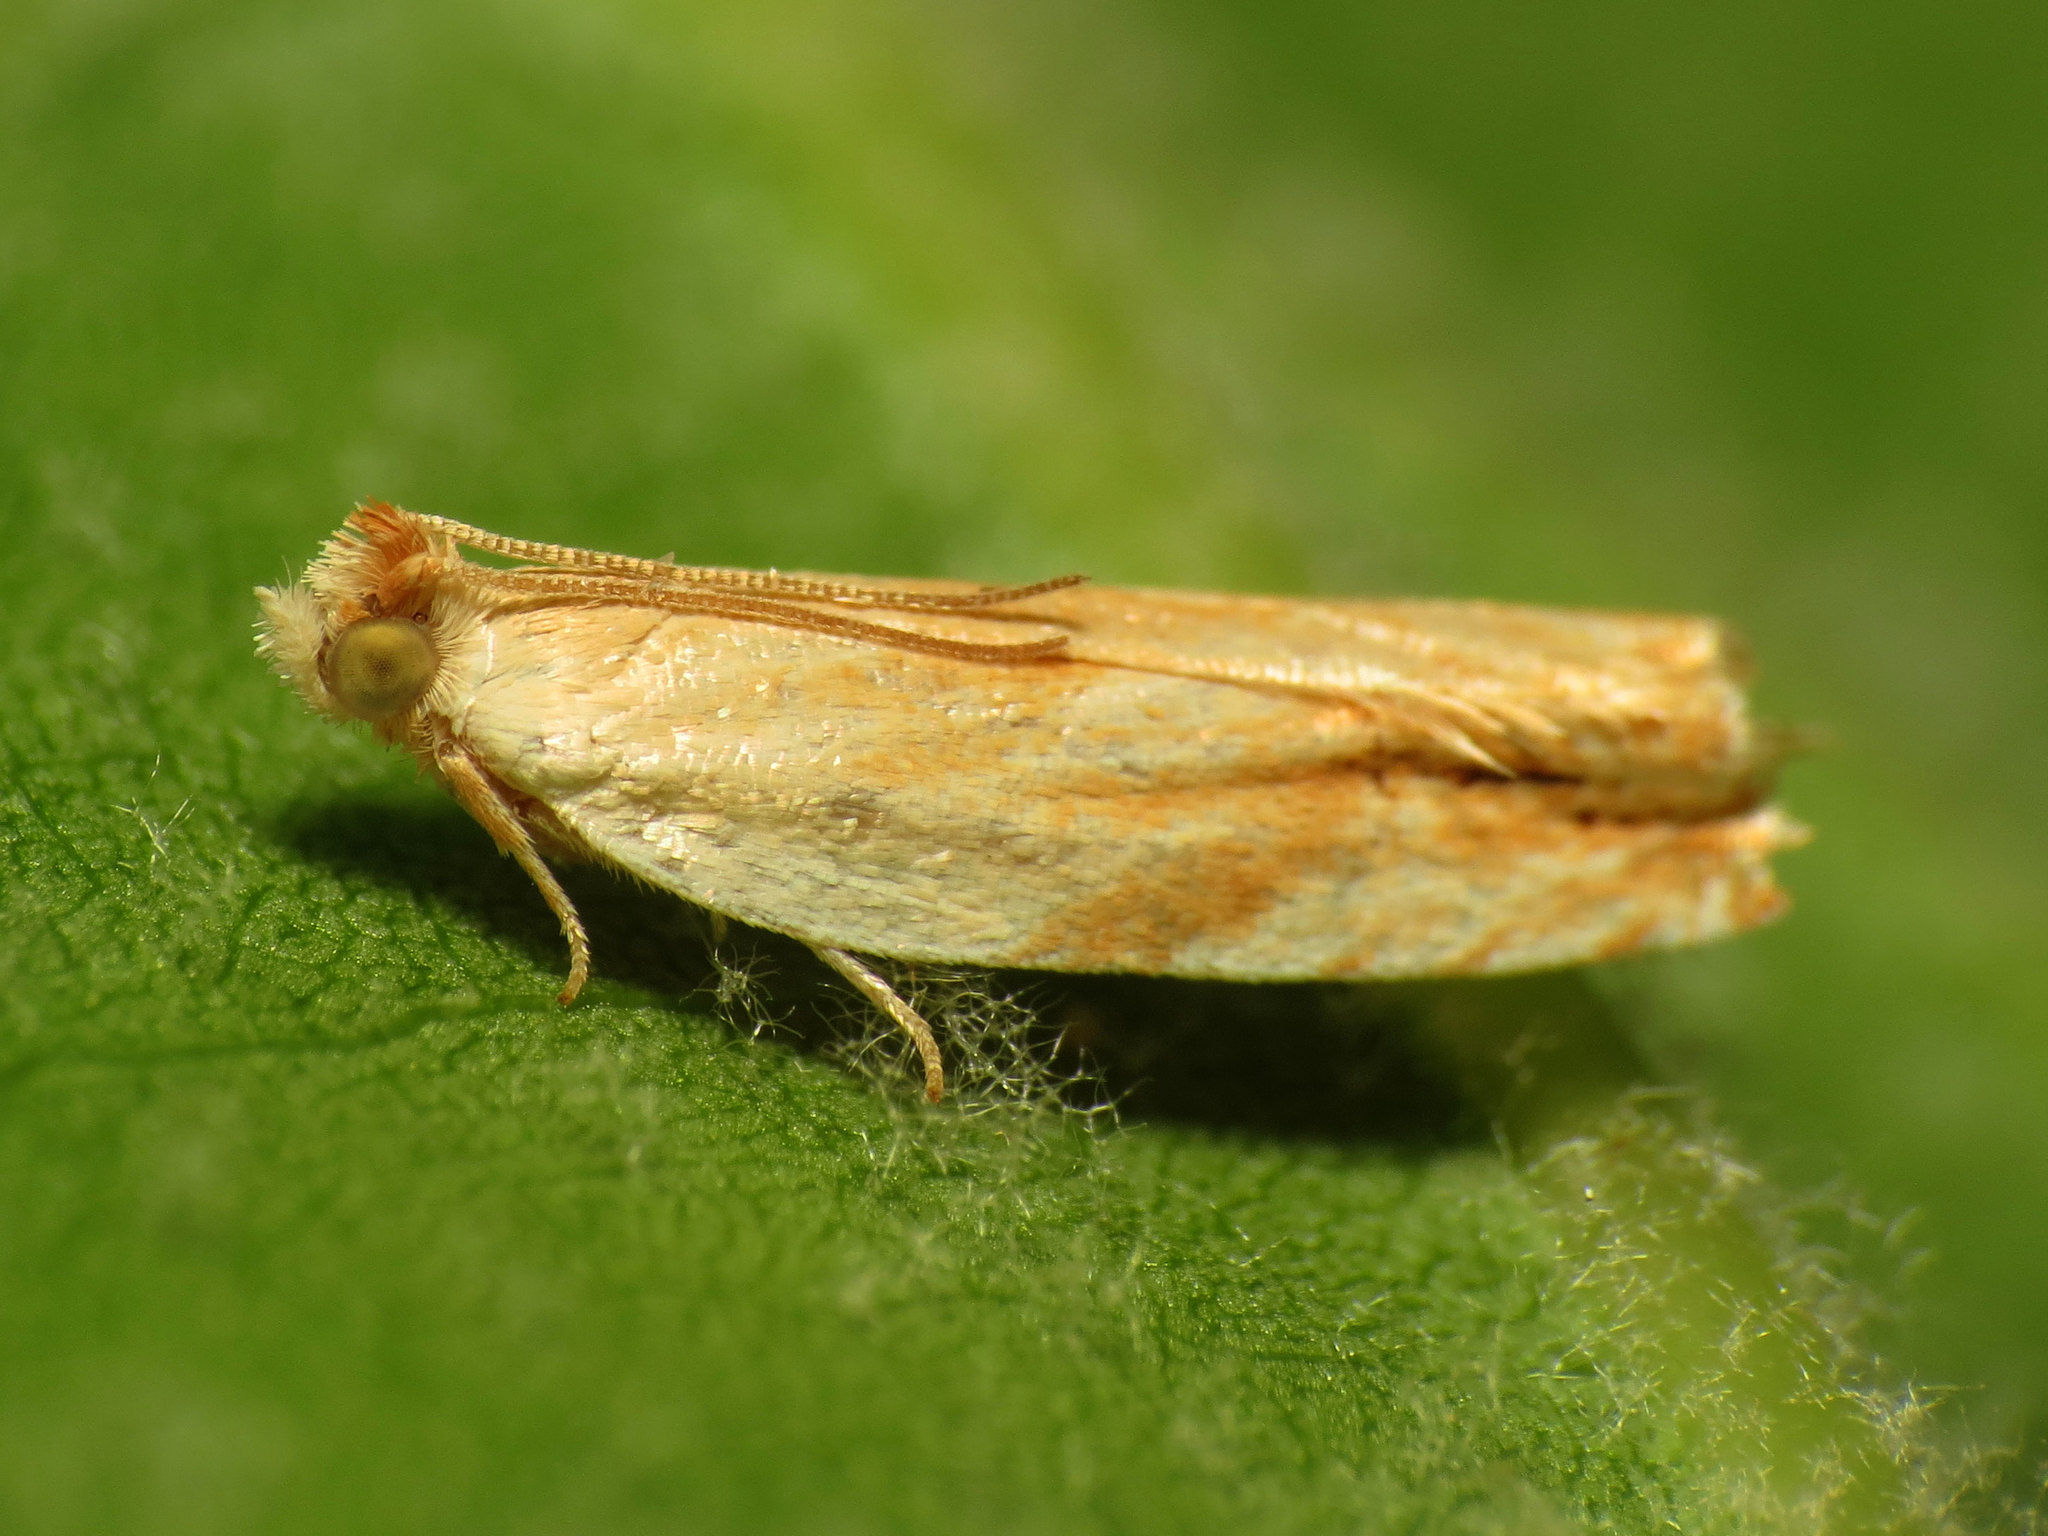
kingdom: Animalia
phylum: Arthropoda
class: Insecta
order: Lepidoptera
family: Tortricidae
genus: Ancylis
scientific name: Ancylis platanana
